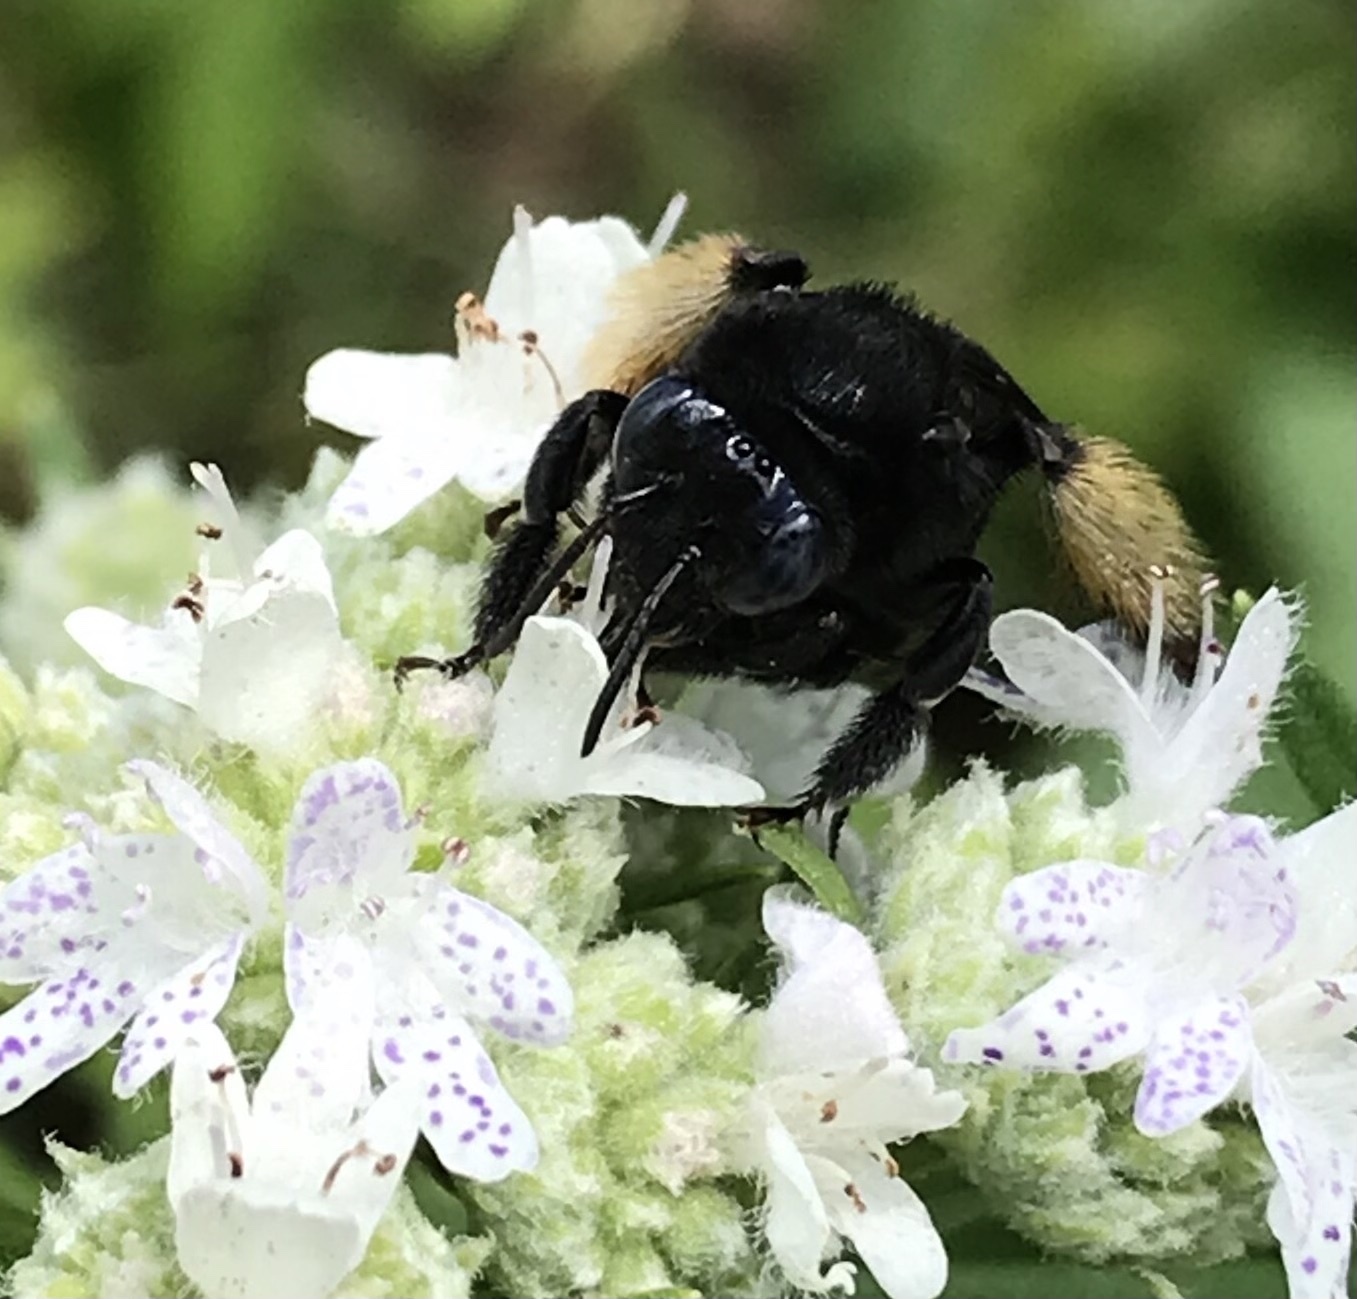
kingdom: Animalia
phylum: Arthropoda
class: Insecta
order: Hymenoptera
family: Apidae
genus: Melissodes
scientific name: Melissodes bimaculatus
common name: Two-spotted long-horned bee
